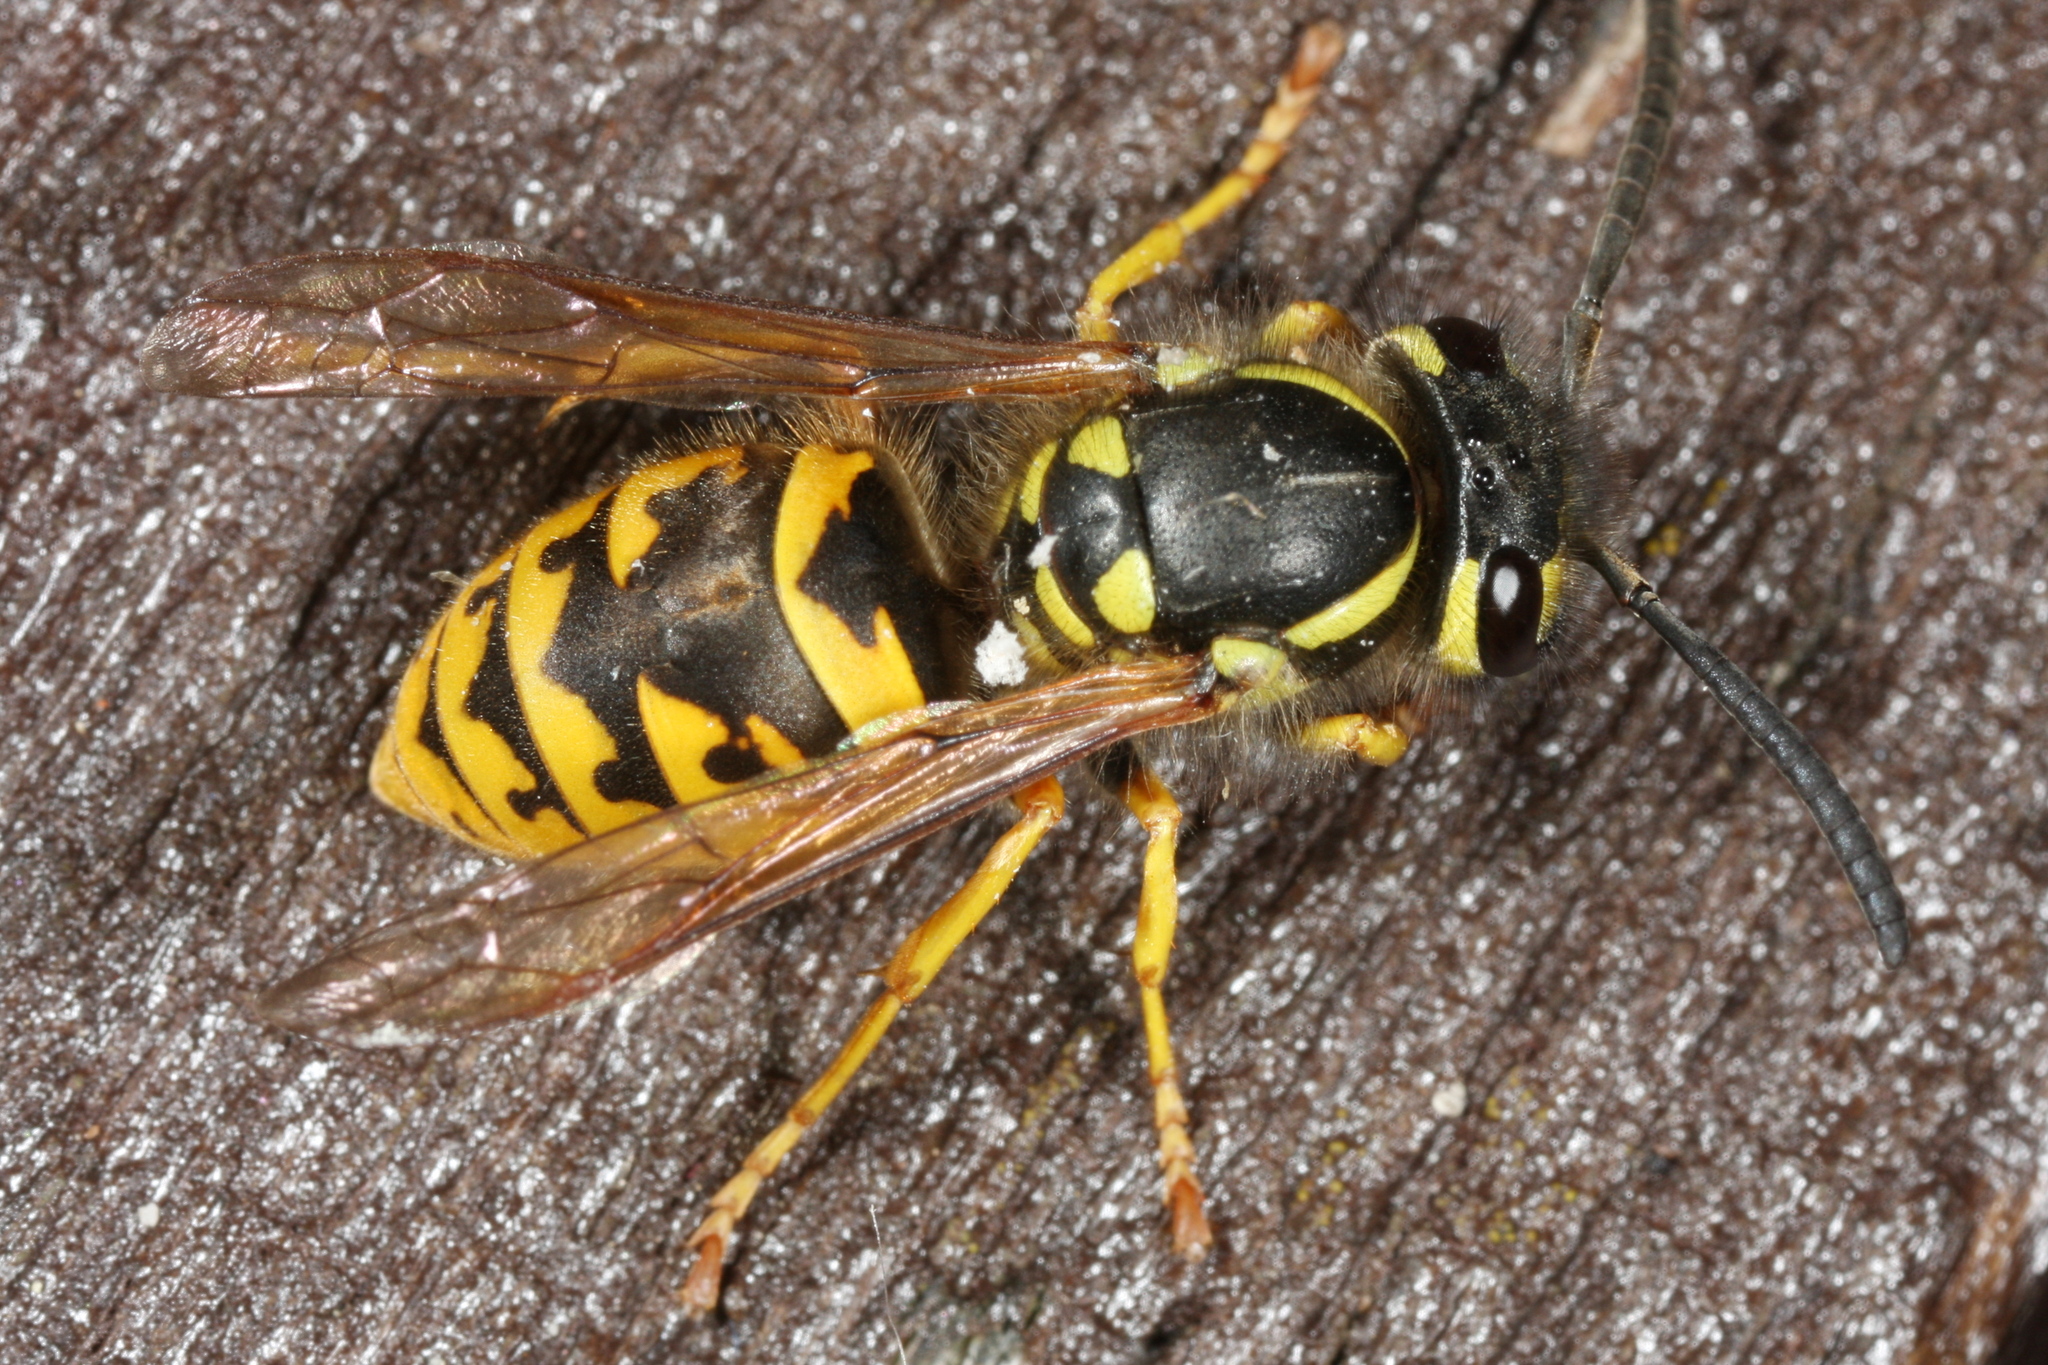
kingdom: Animalia
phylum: Arthropoda
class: Insecta
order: Hymenoptera
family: Vespidae
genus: Vespula
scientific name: Vespula germanica
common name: German wasp
